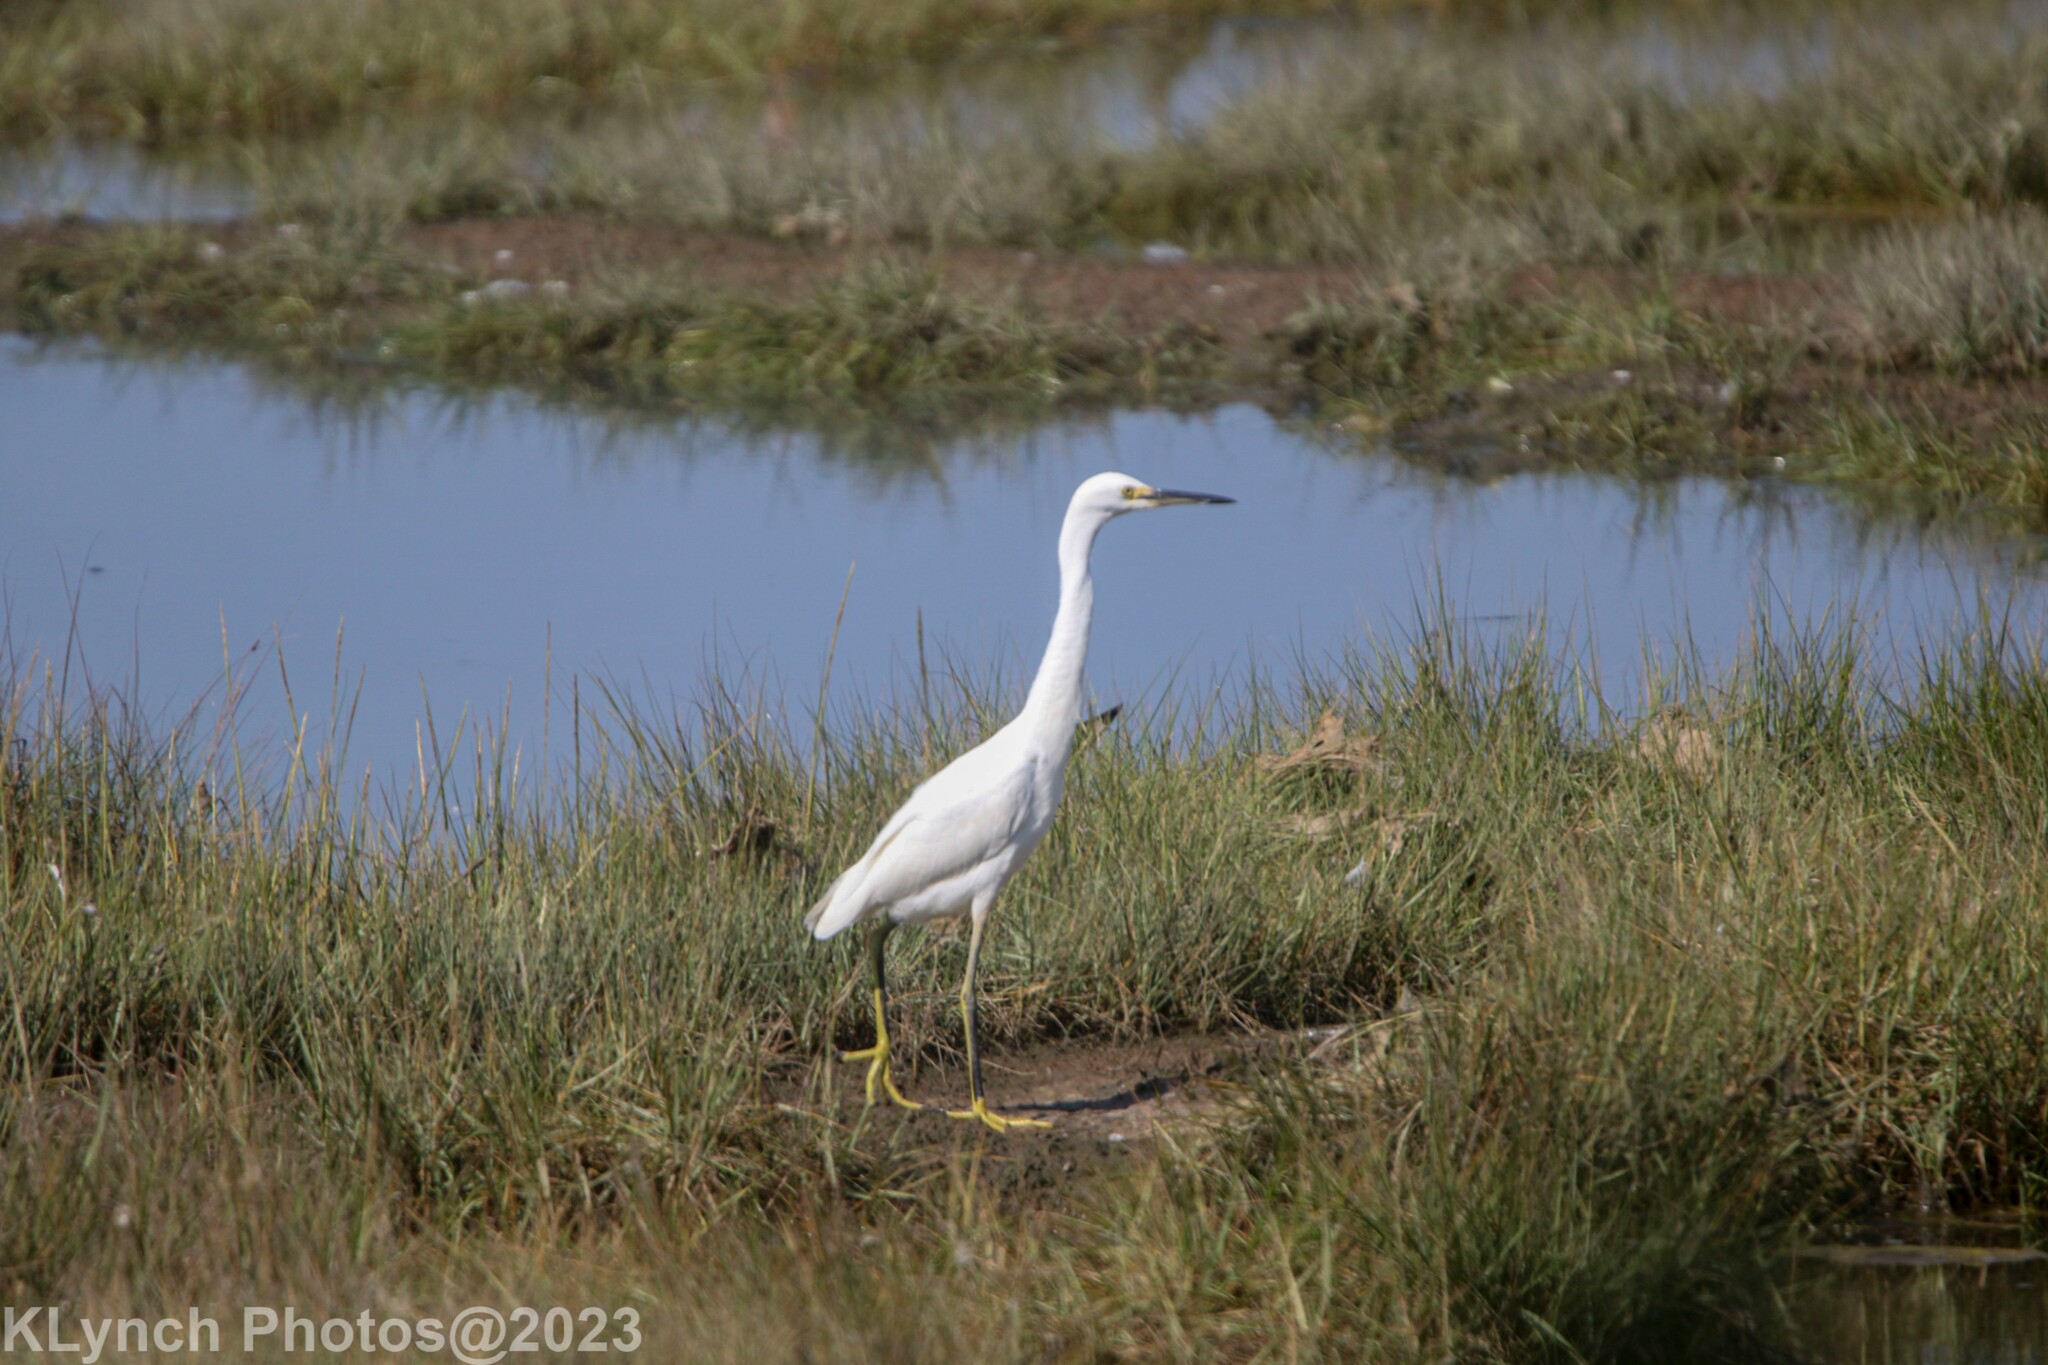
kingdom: Animalia
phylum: Chordata
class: Aves
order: Pelecaniformes
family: Ardeidae
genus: Egretta
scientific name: Egretta thula
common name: Snowy egret
